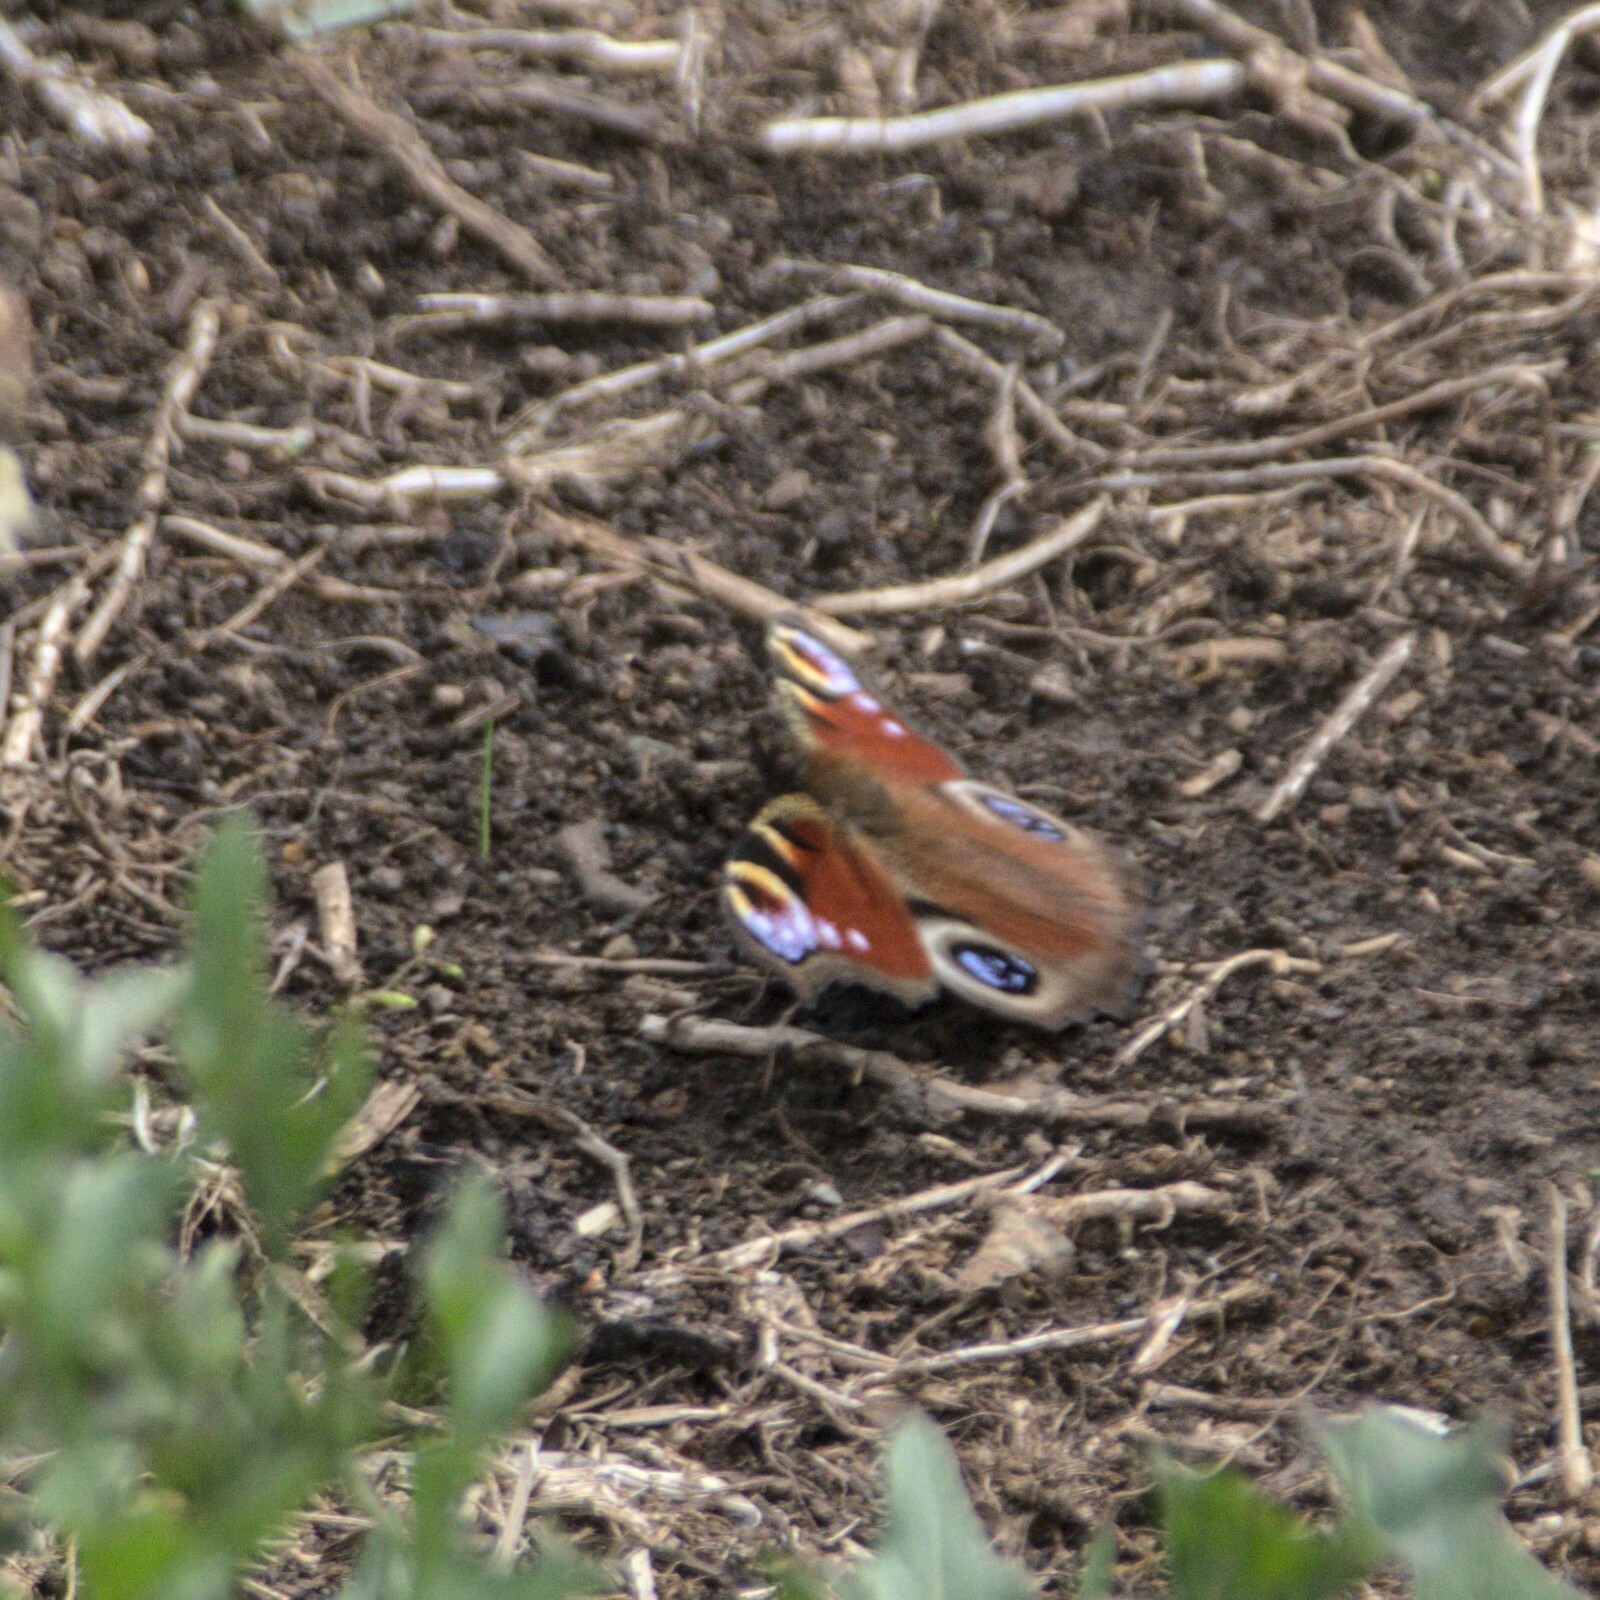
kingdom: Animalia
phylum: Arthropoda
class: Insecta
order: Lepidoptera
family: Nymphalidae
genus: Aglais
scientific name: Aglais io
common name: Peacock
